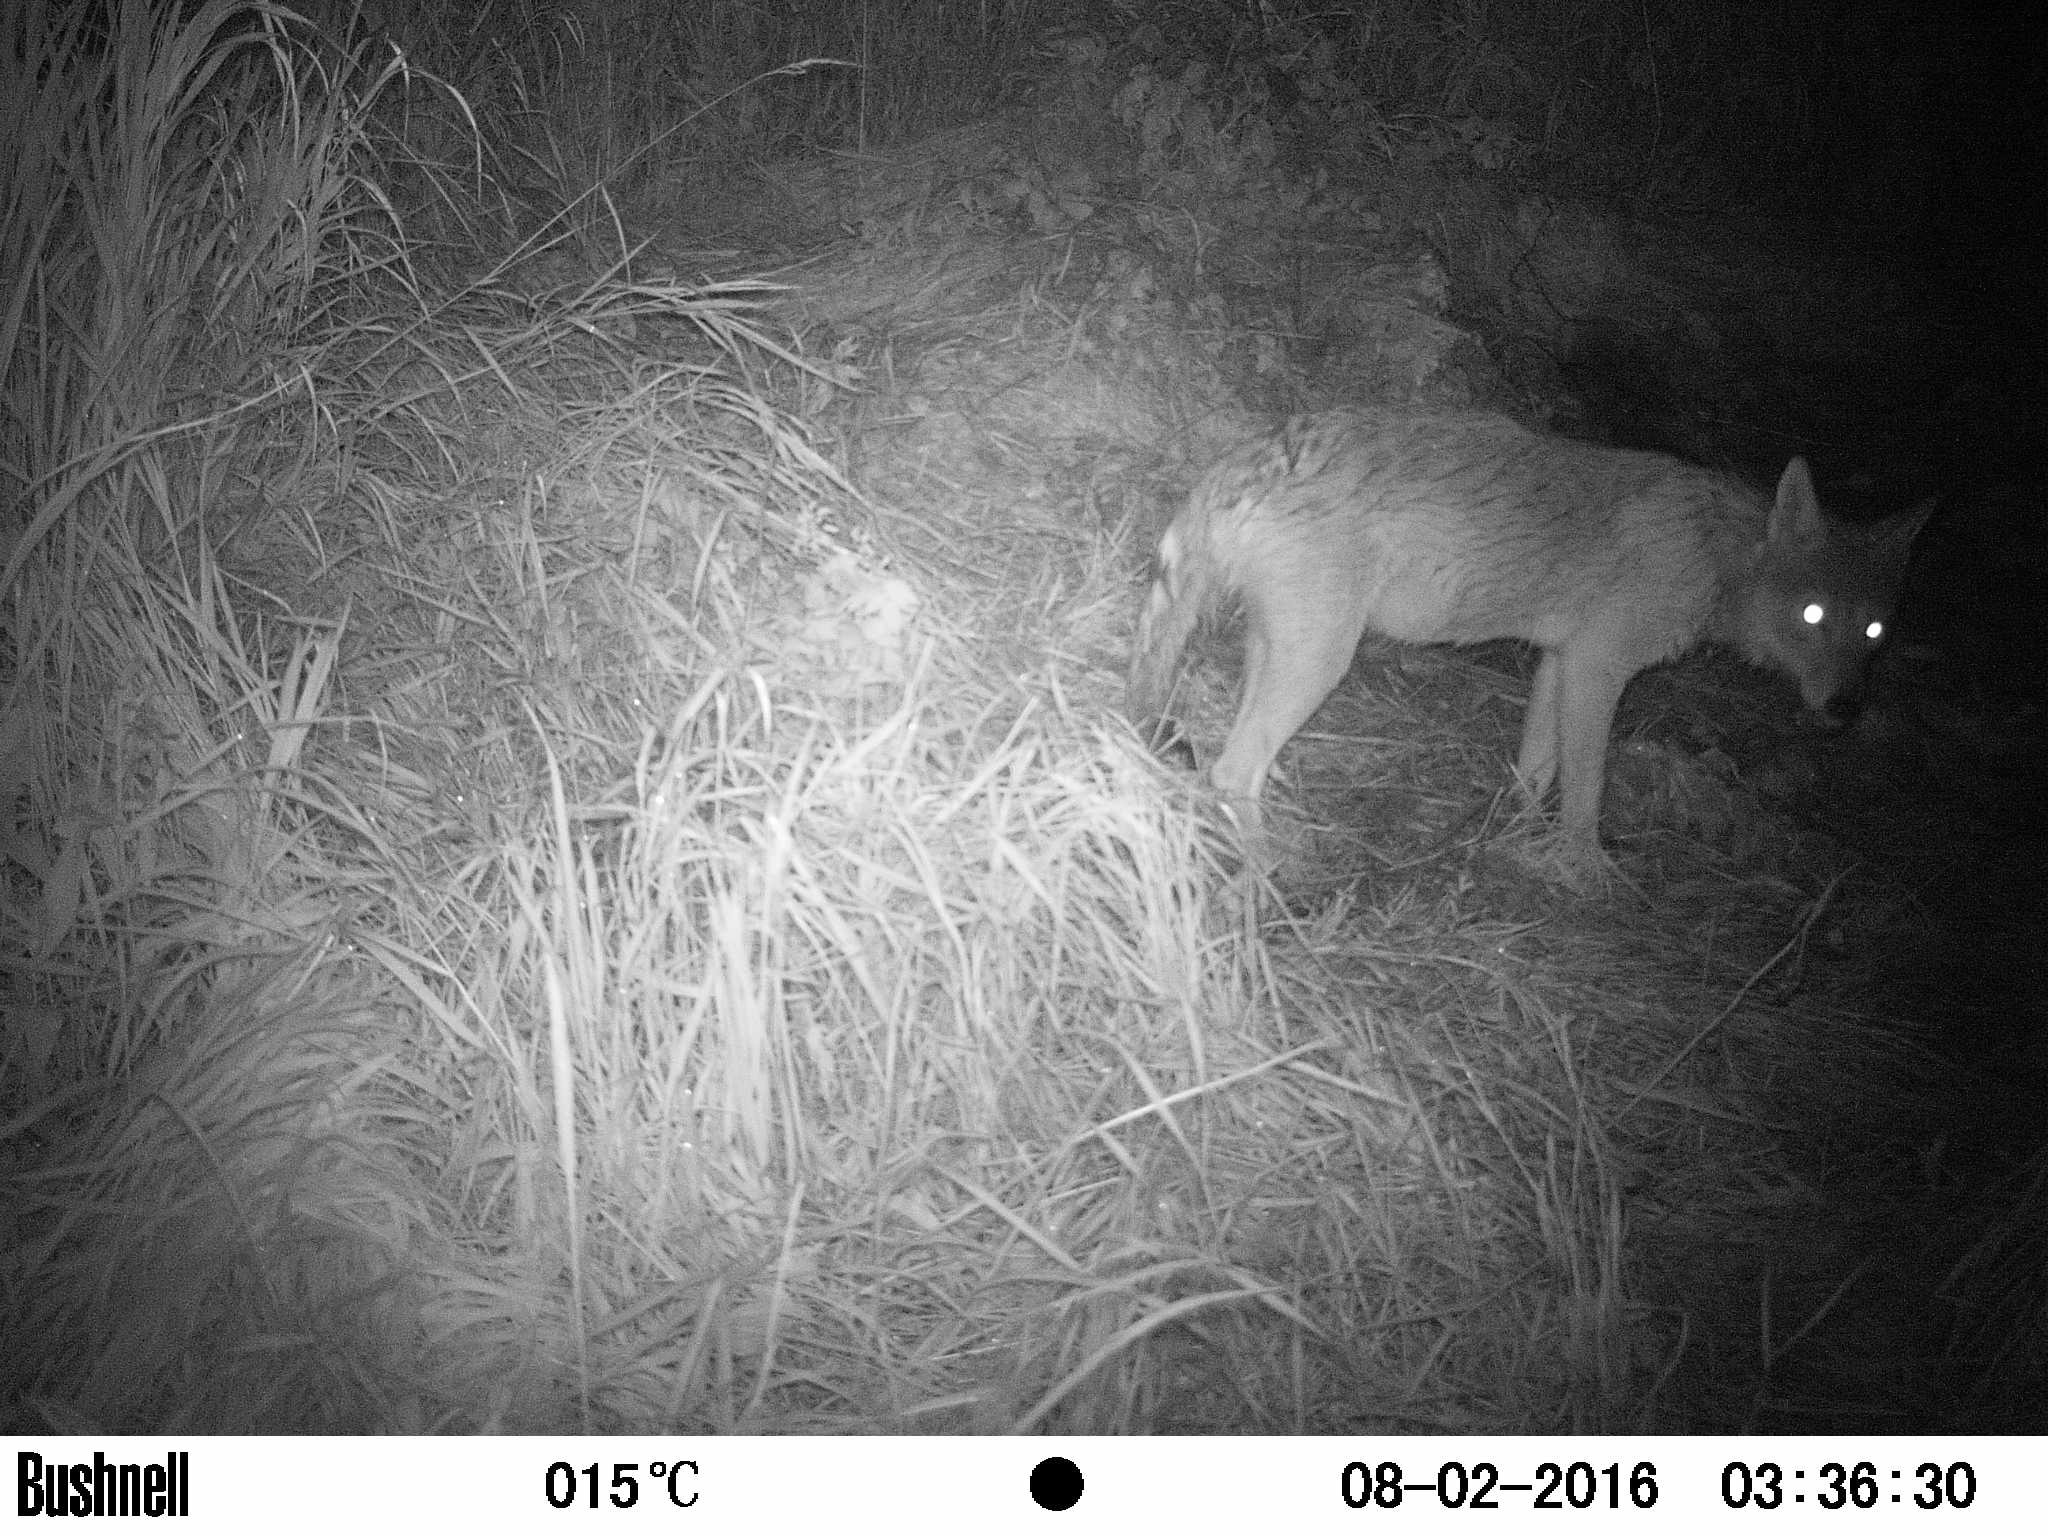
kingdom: Animalia
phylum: Chordata
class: Mammalia
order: Carnivora
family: Canidae
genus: Canis
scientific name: Canis latrans
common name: Coyote
